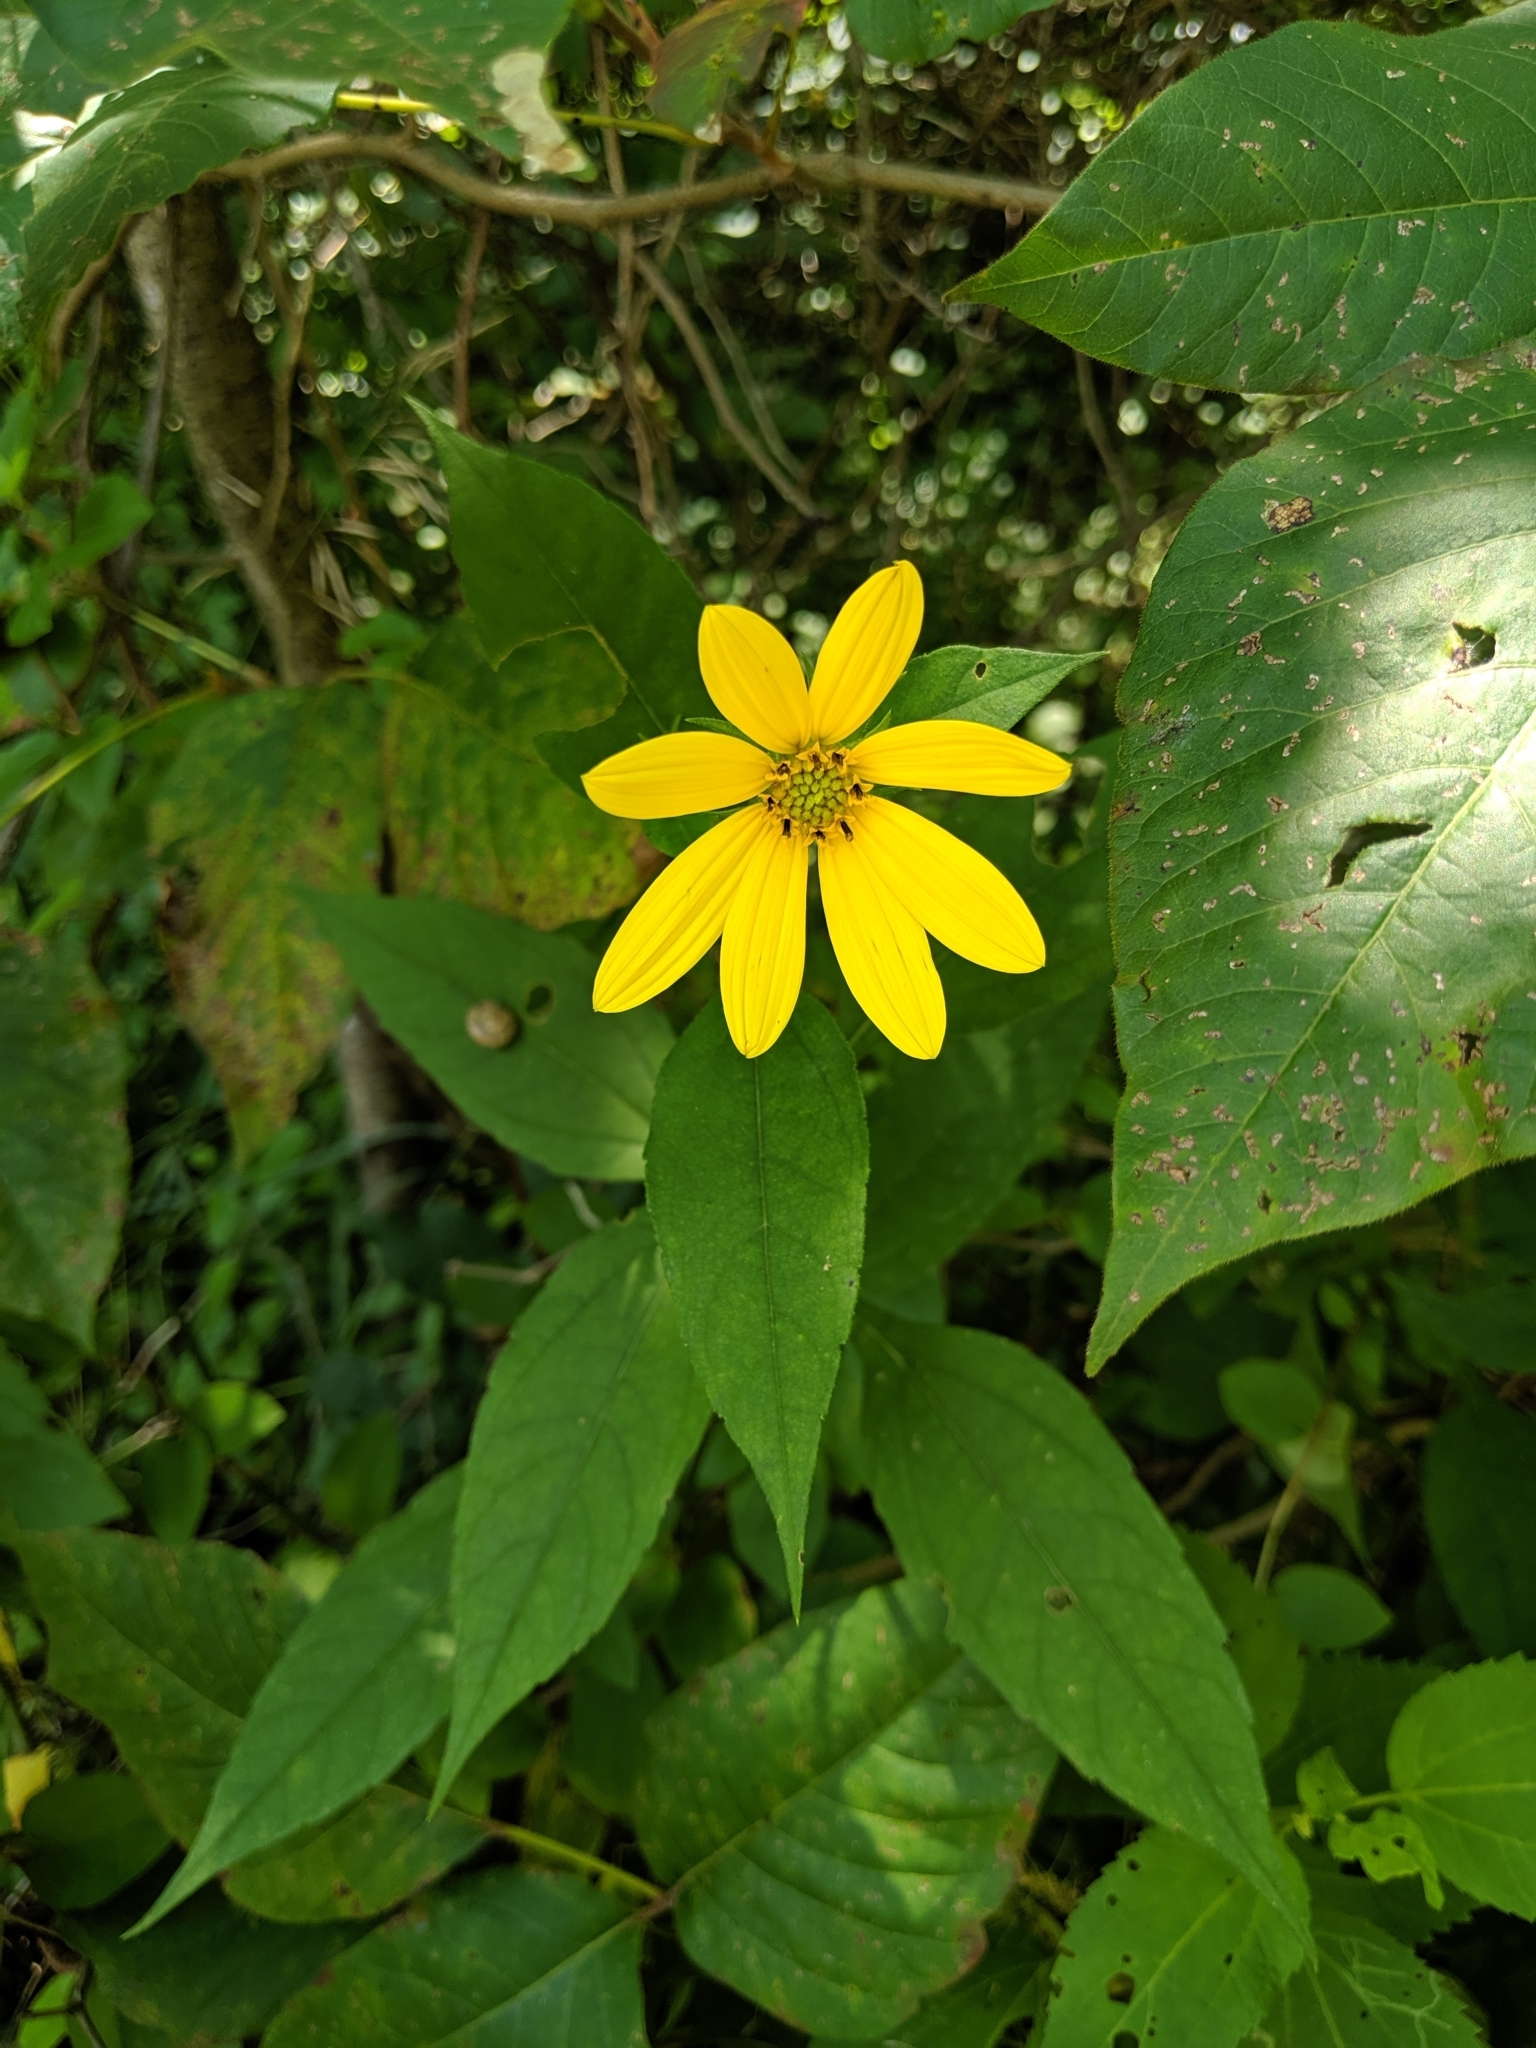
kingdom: Plantae
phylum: Tracheophyta
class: Magnoliopsida
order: Asterales
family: Asteraceae
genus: Helianthus
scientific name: Helianthus tuberosus
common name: Jerusalem artichoke
